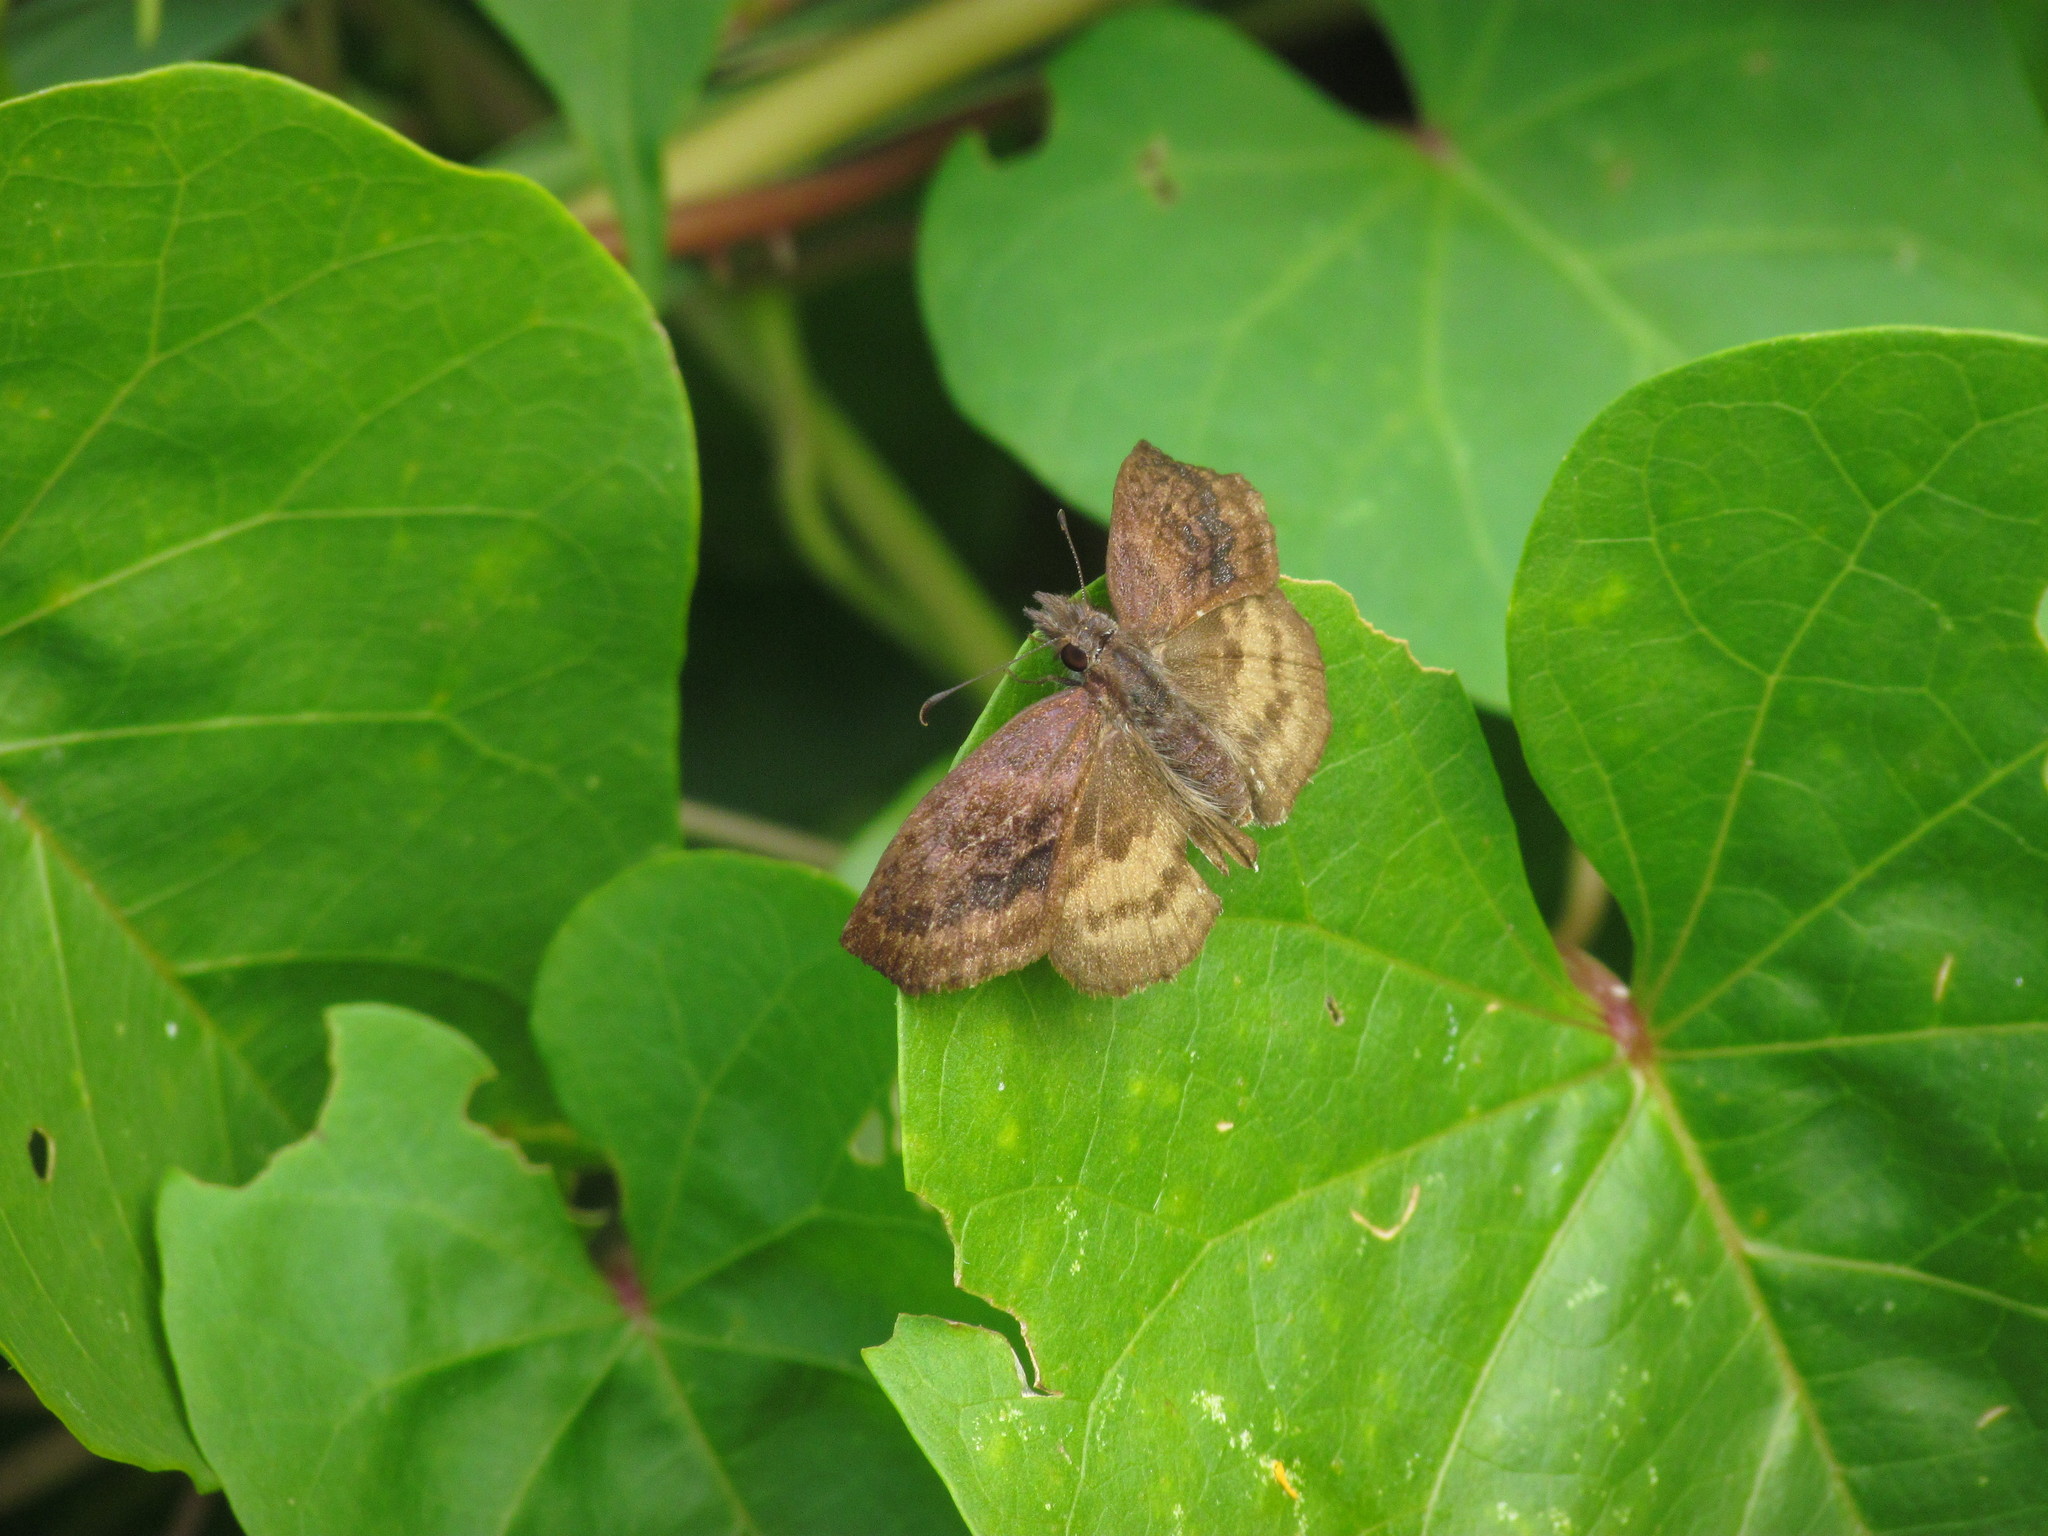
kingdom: Animalia
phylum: Arthropoda
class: Insecta
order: Lepidoptera
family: Hesperiidae
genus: Theagenes
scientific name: Theagenes dichrous
